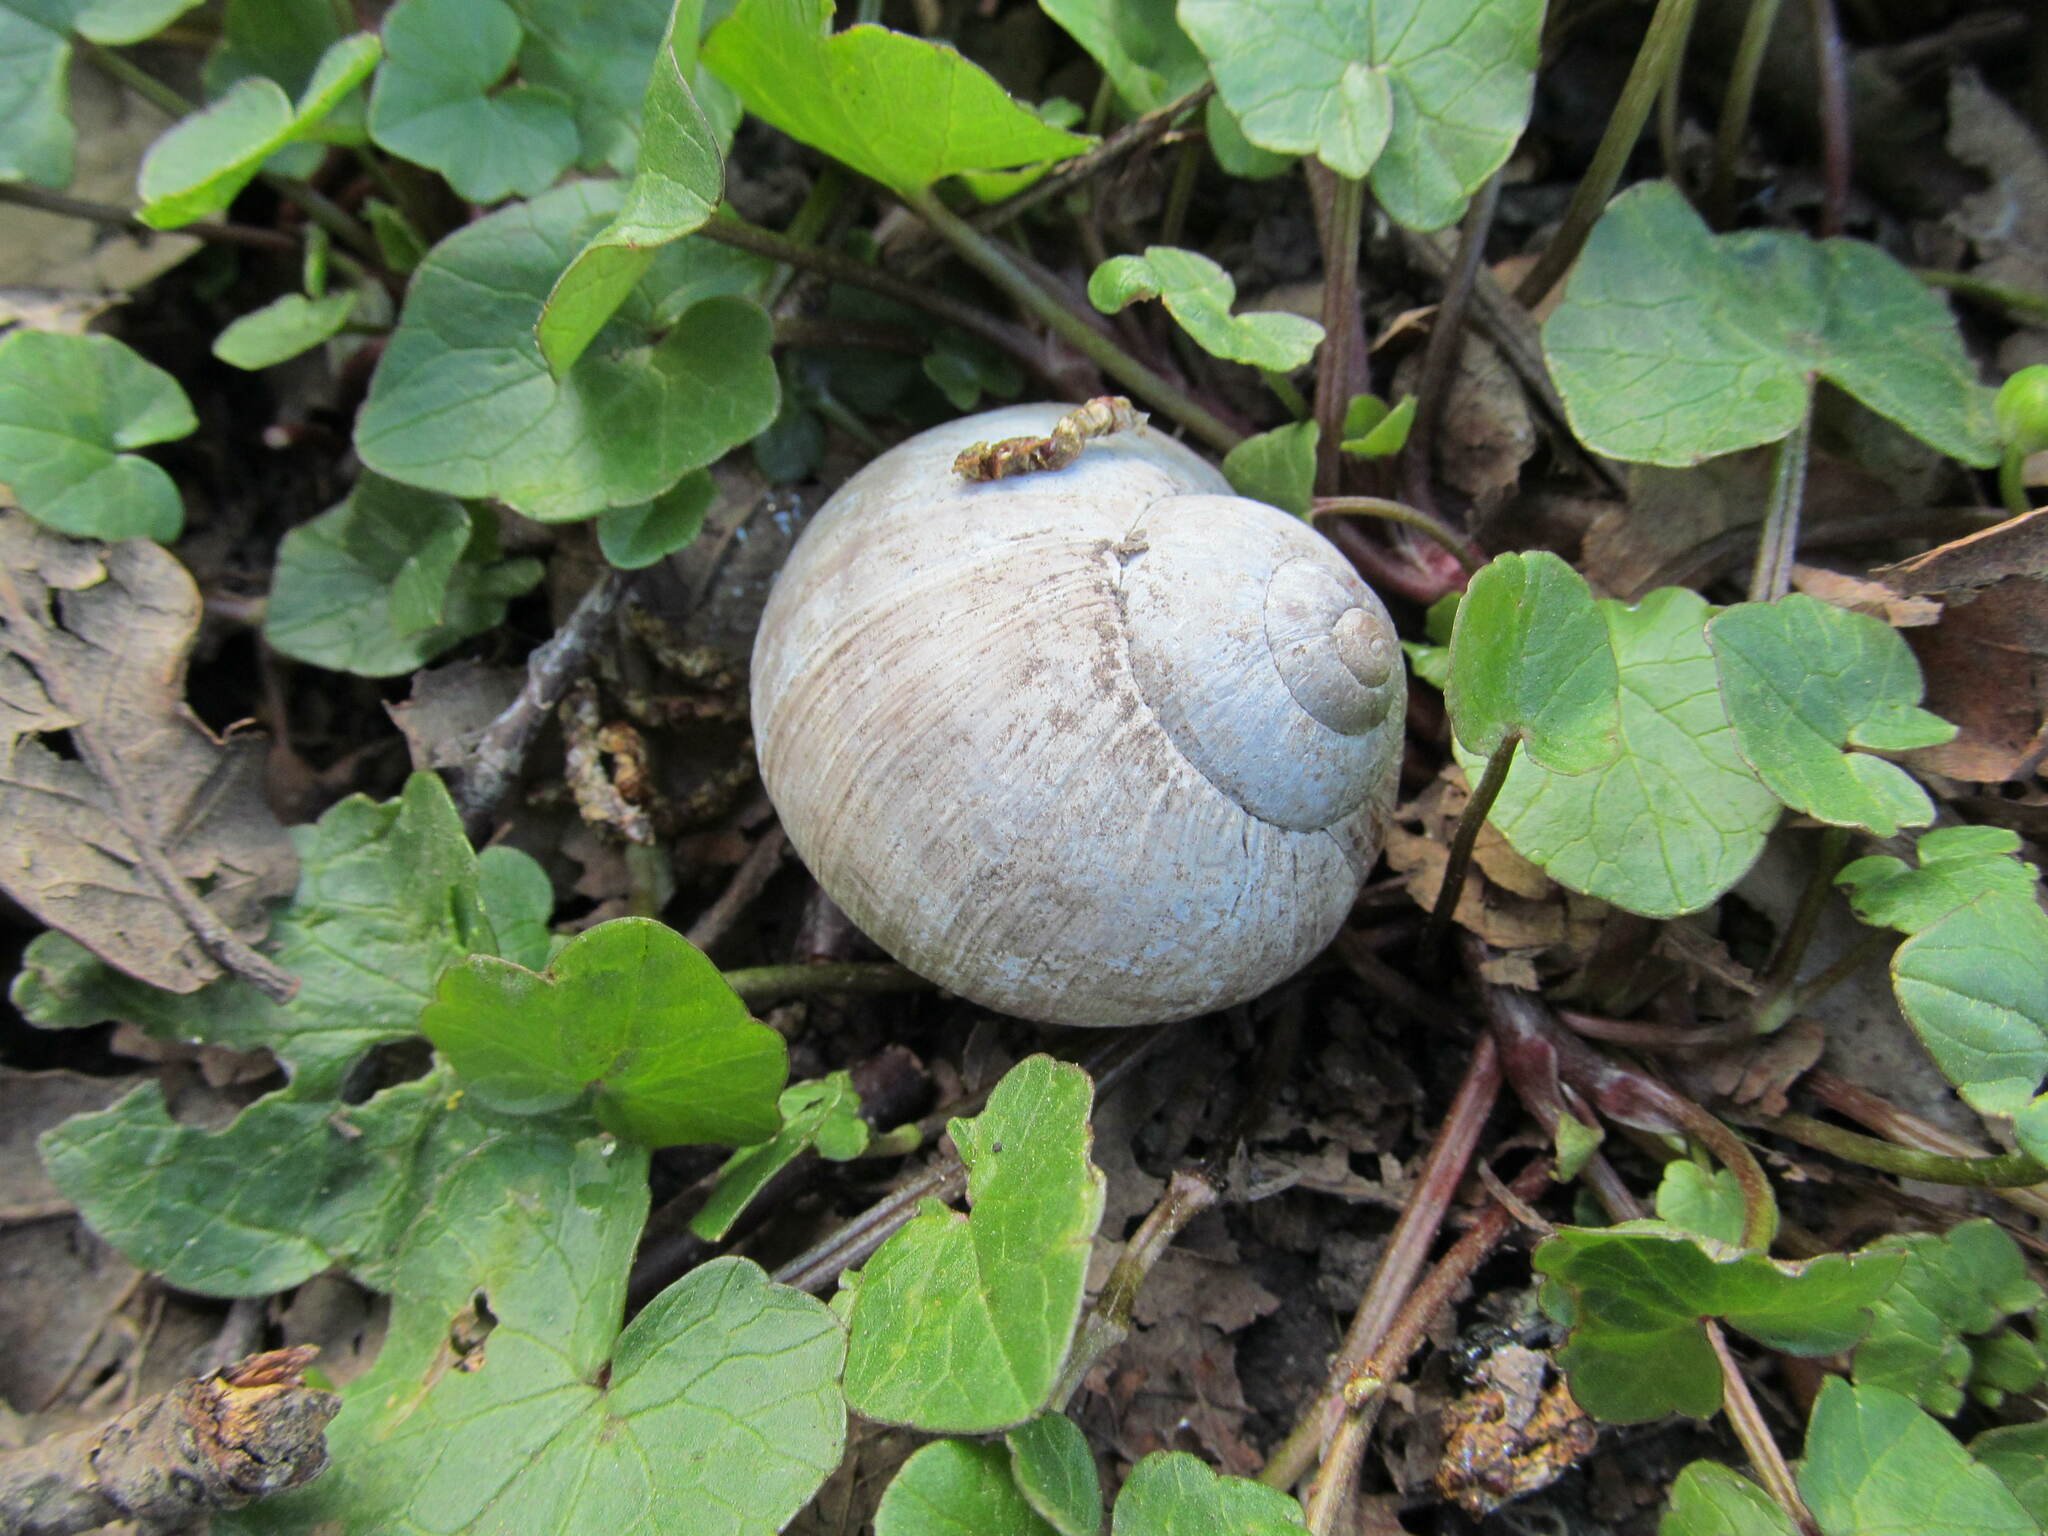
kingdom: Animalia
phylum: Mollusca
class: Gastropoda
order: Stylommatophora
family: Helicidae
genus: Helix
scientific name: Helix pomatia
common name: Roman snail
